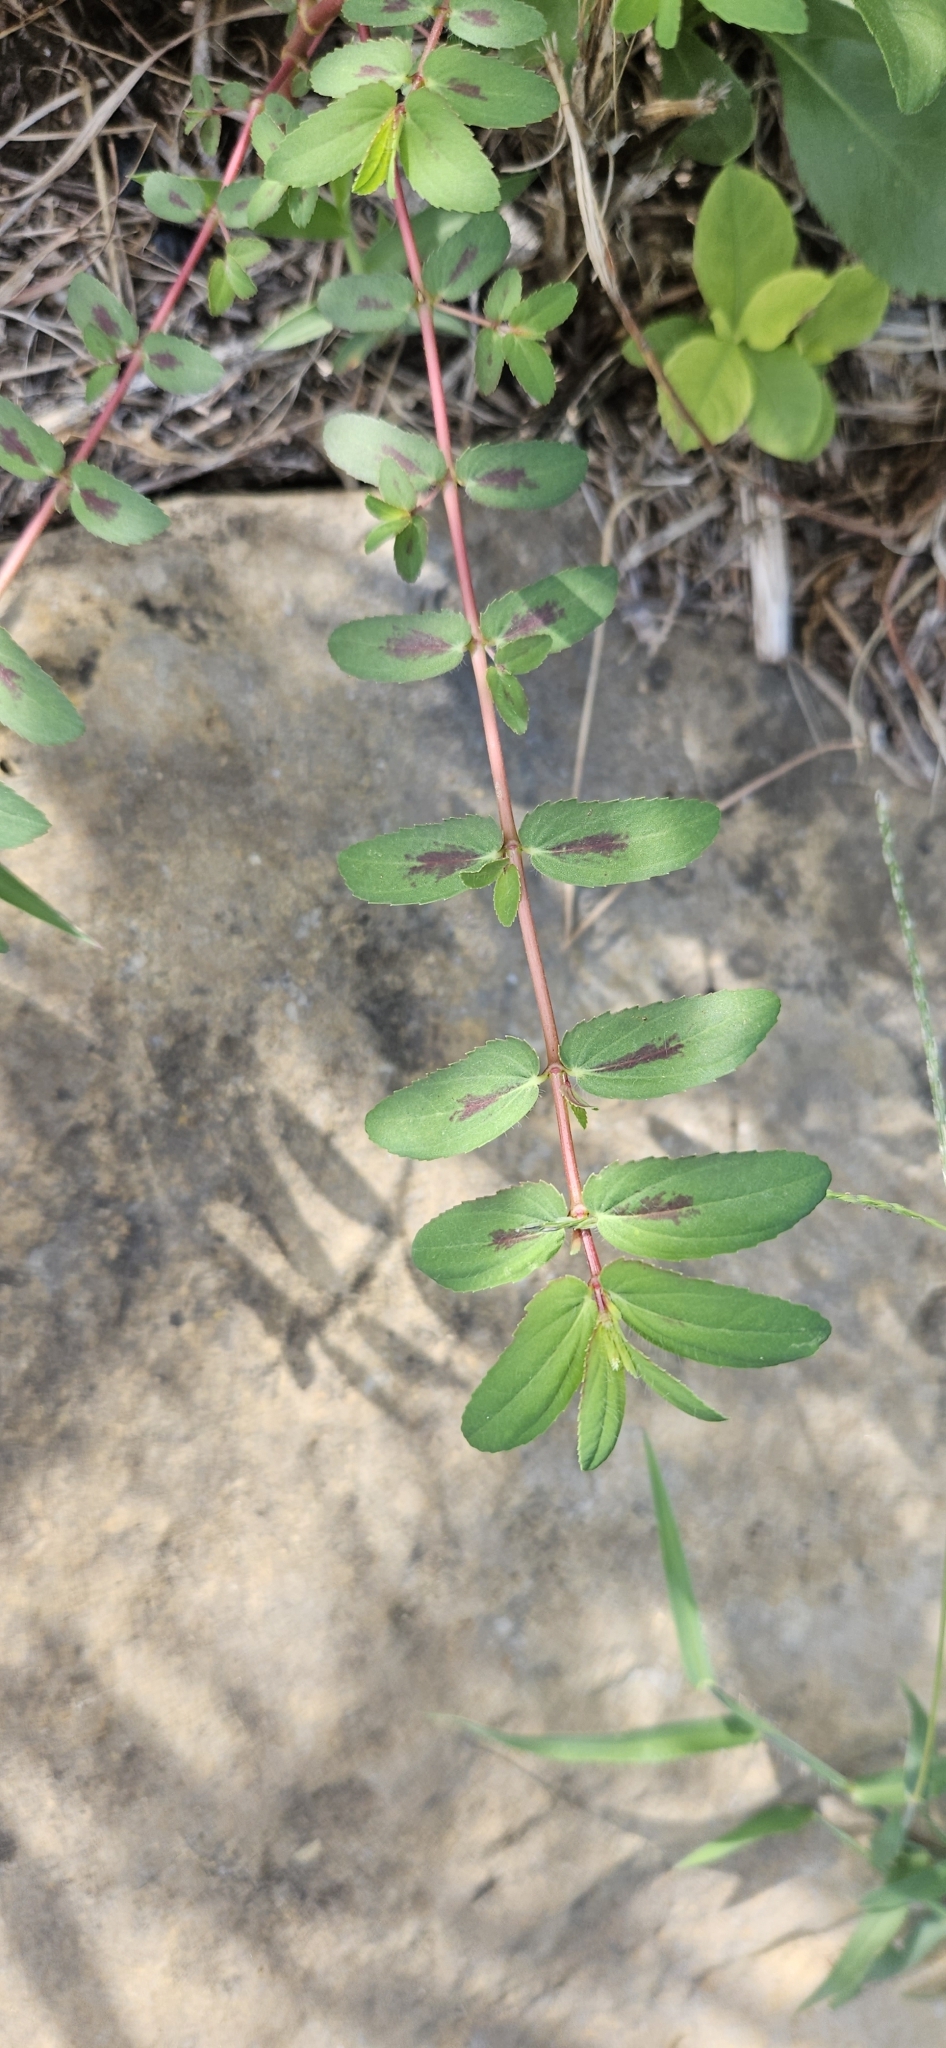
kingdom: Plantae
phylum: Tracheophyta
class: Magnoliopsida
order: Malpighiales
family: Euphorbiaceae
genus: Euphorbia
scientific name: Euphorbia maculata
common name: Spotted spurge
